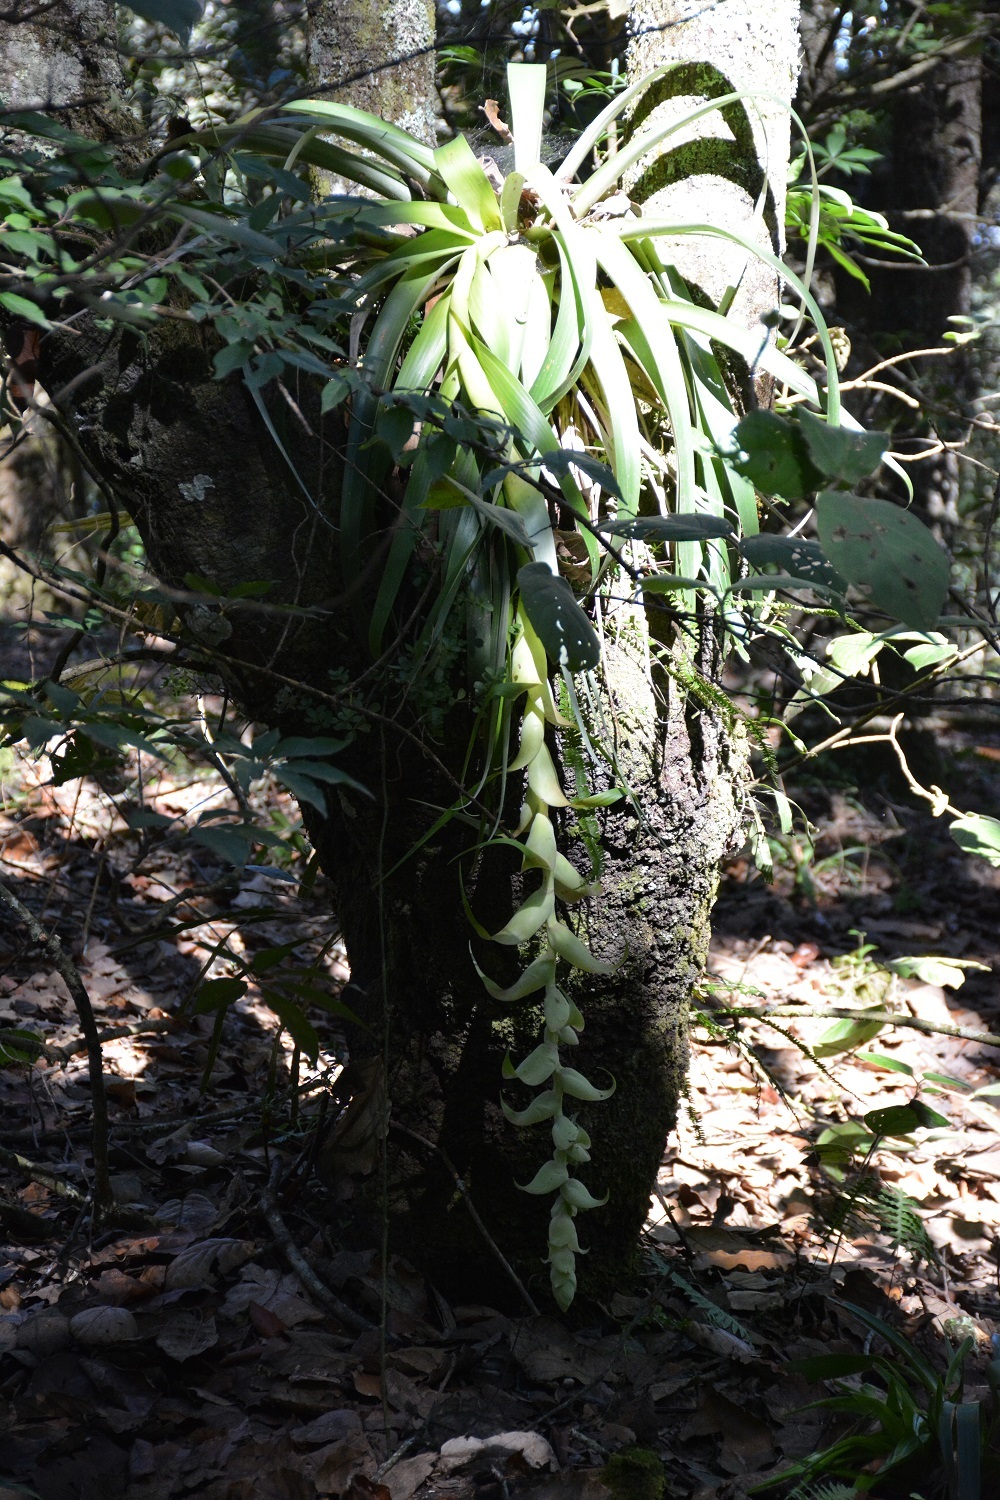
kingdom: Plantae
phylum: Tracheophyta
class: Liliopsida
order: Poales
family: Bromeliaceae
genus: Tillandsia
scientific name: Tillandsia eizii
